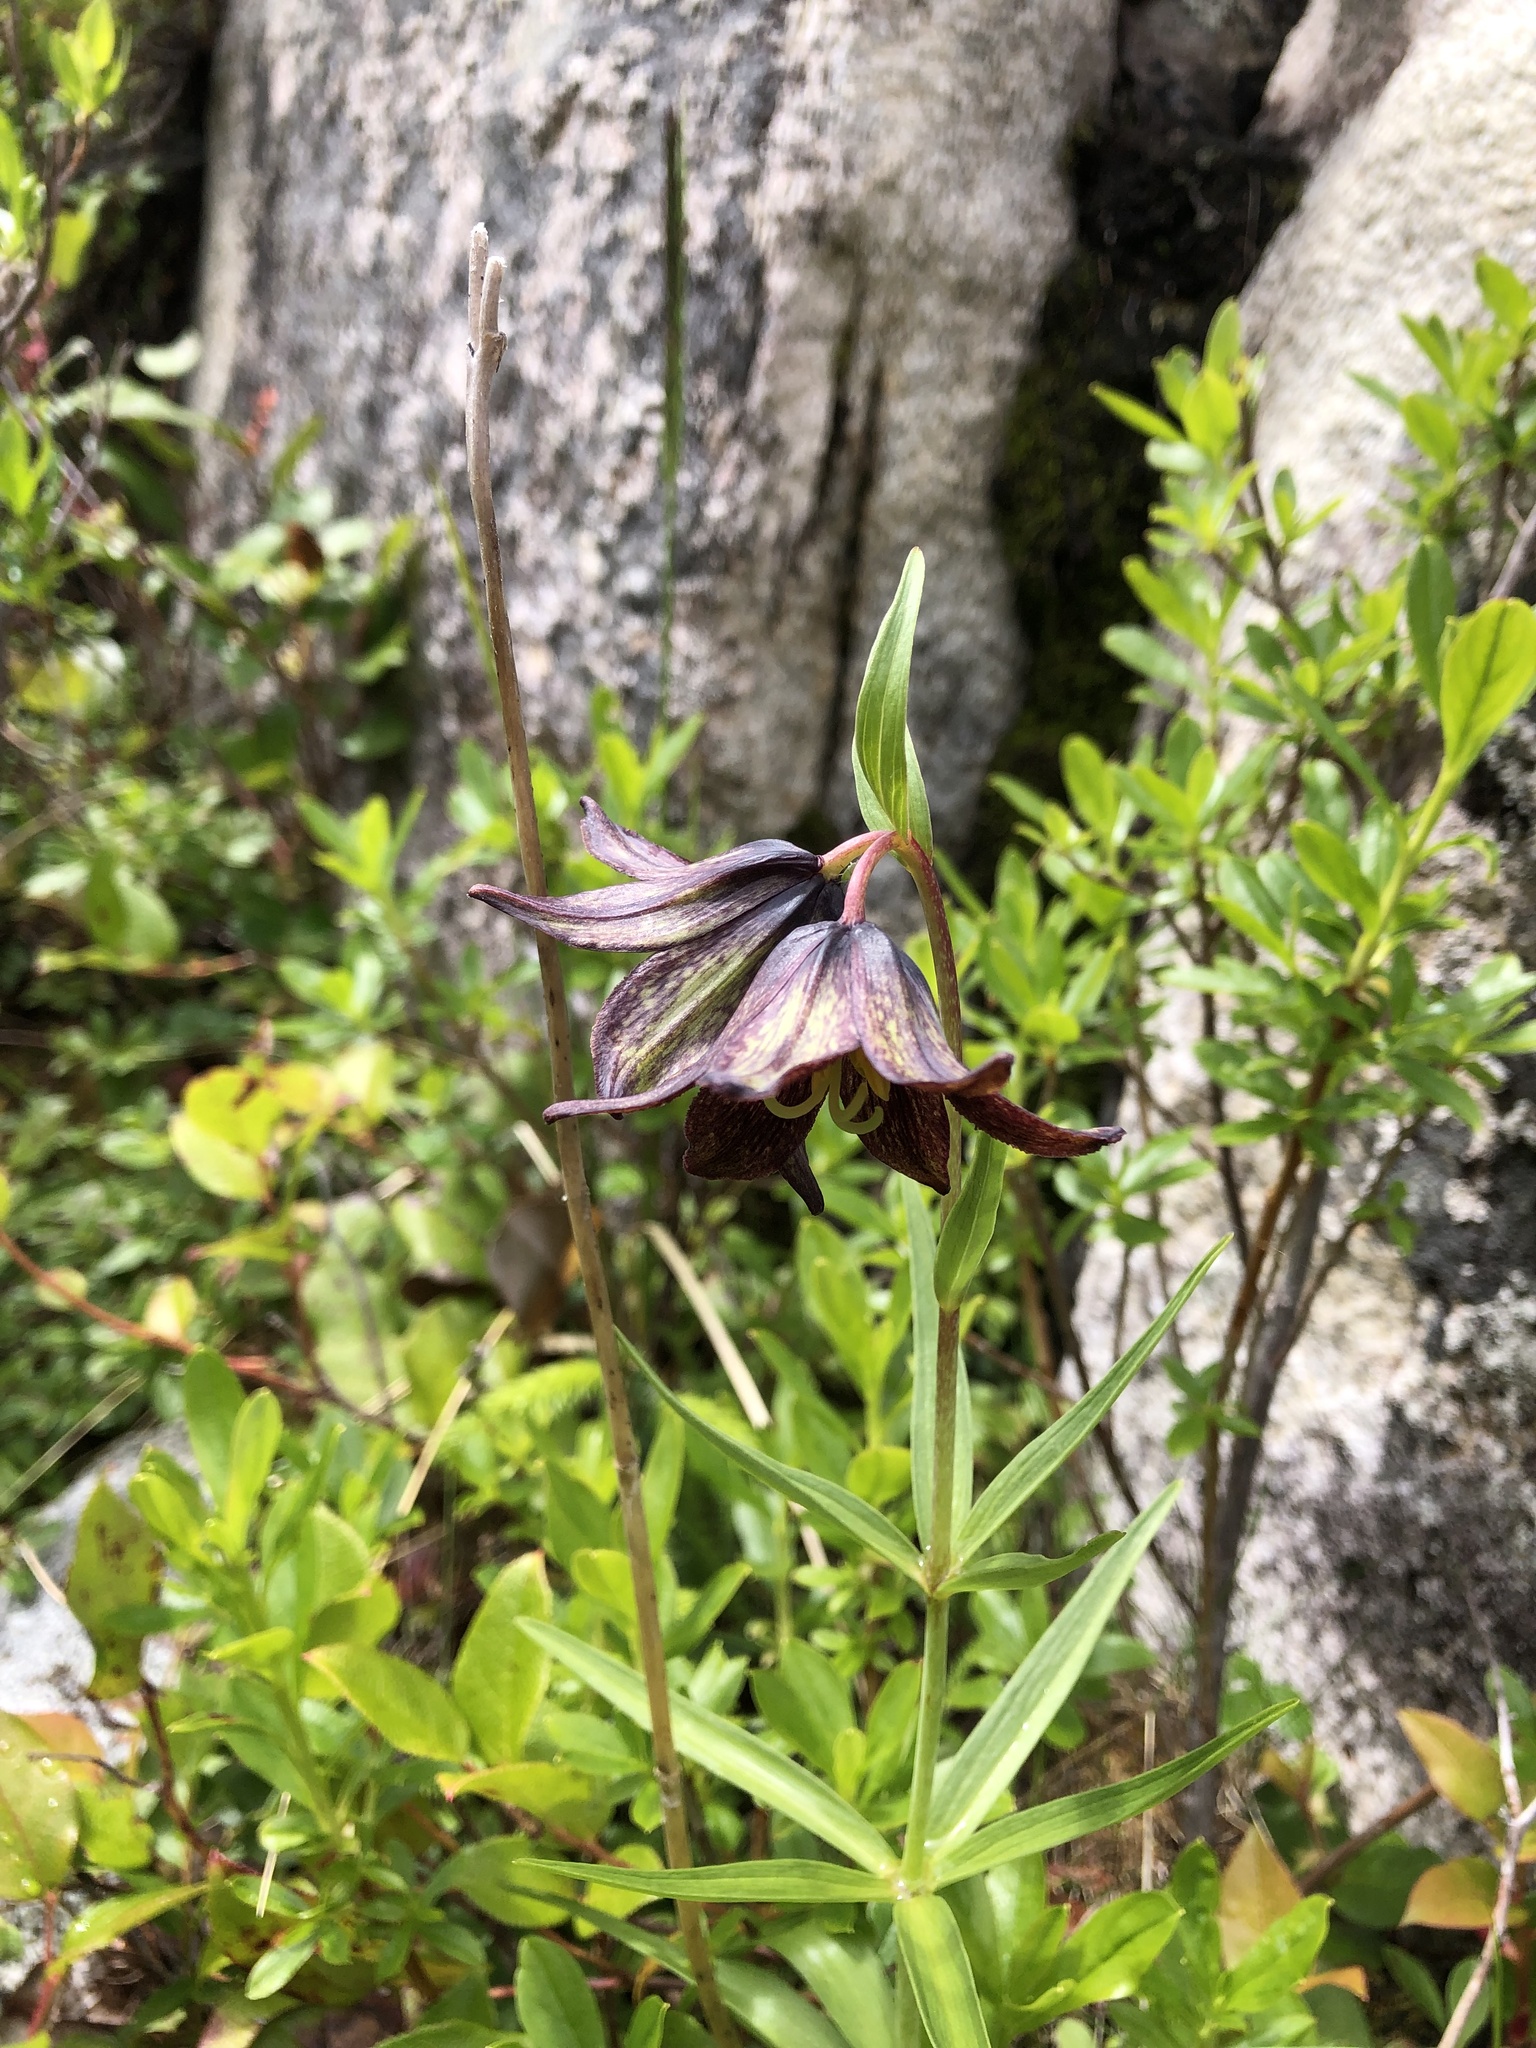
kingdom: Plantae
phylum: Tracheophyta
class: Liliopsida
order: Liliales
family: Liliaceae
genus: Fritillaria
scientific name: Fritillaria camschatcensis
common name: Kamchatka fritillary
